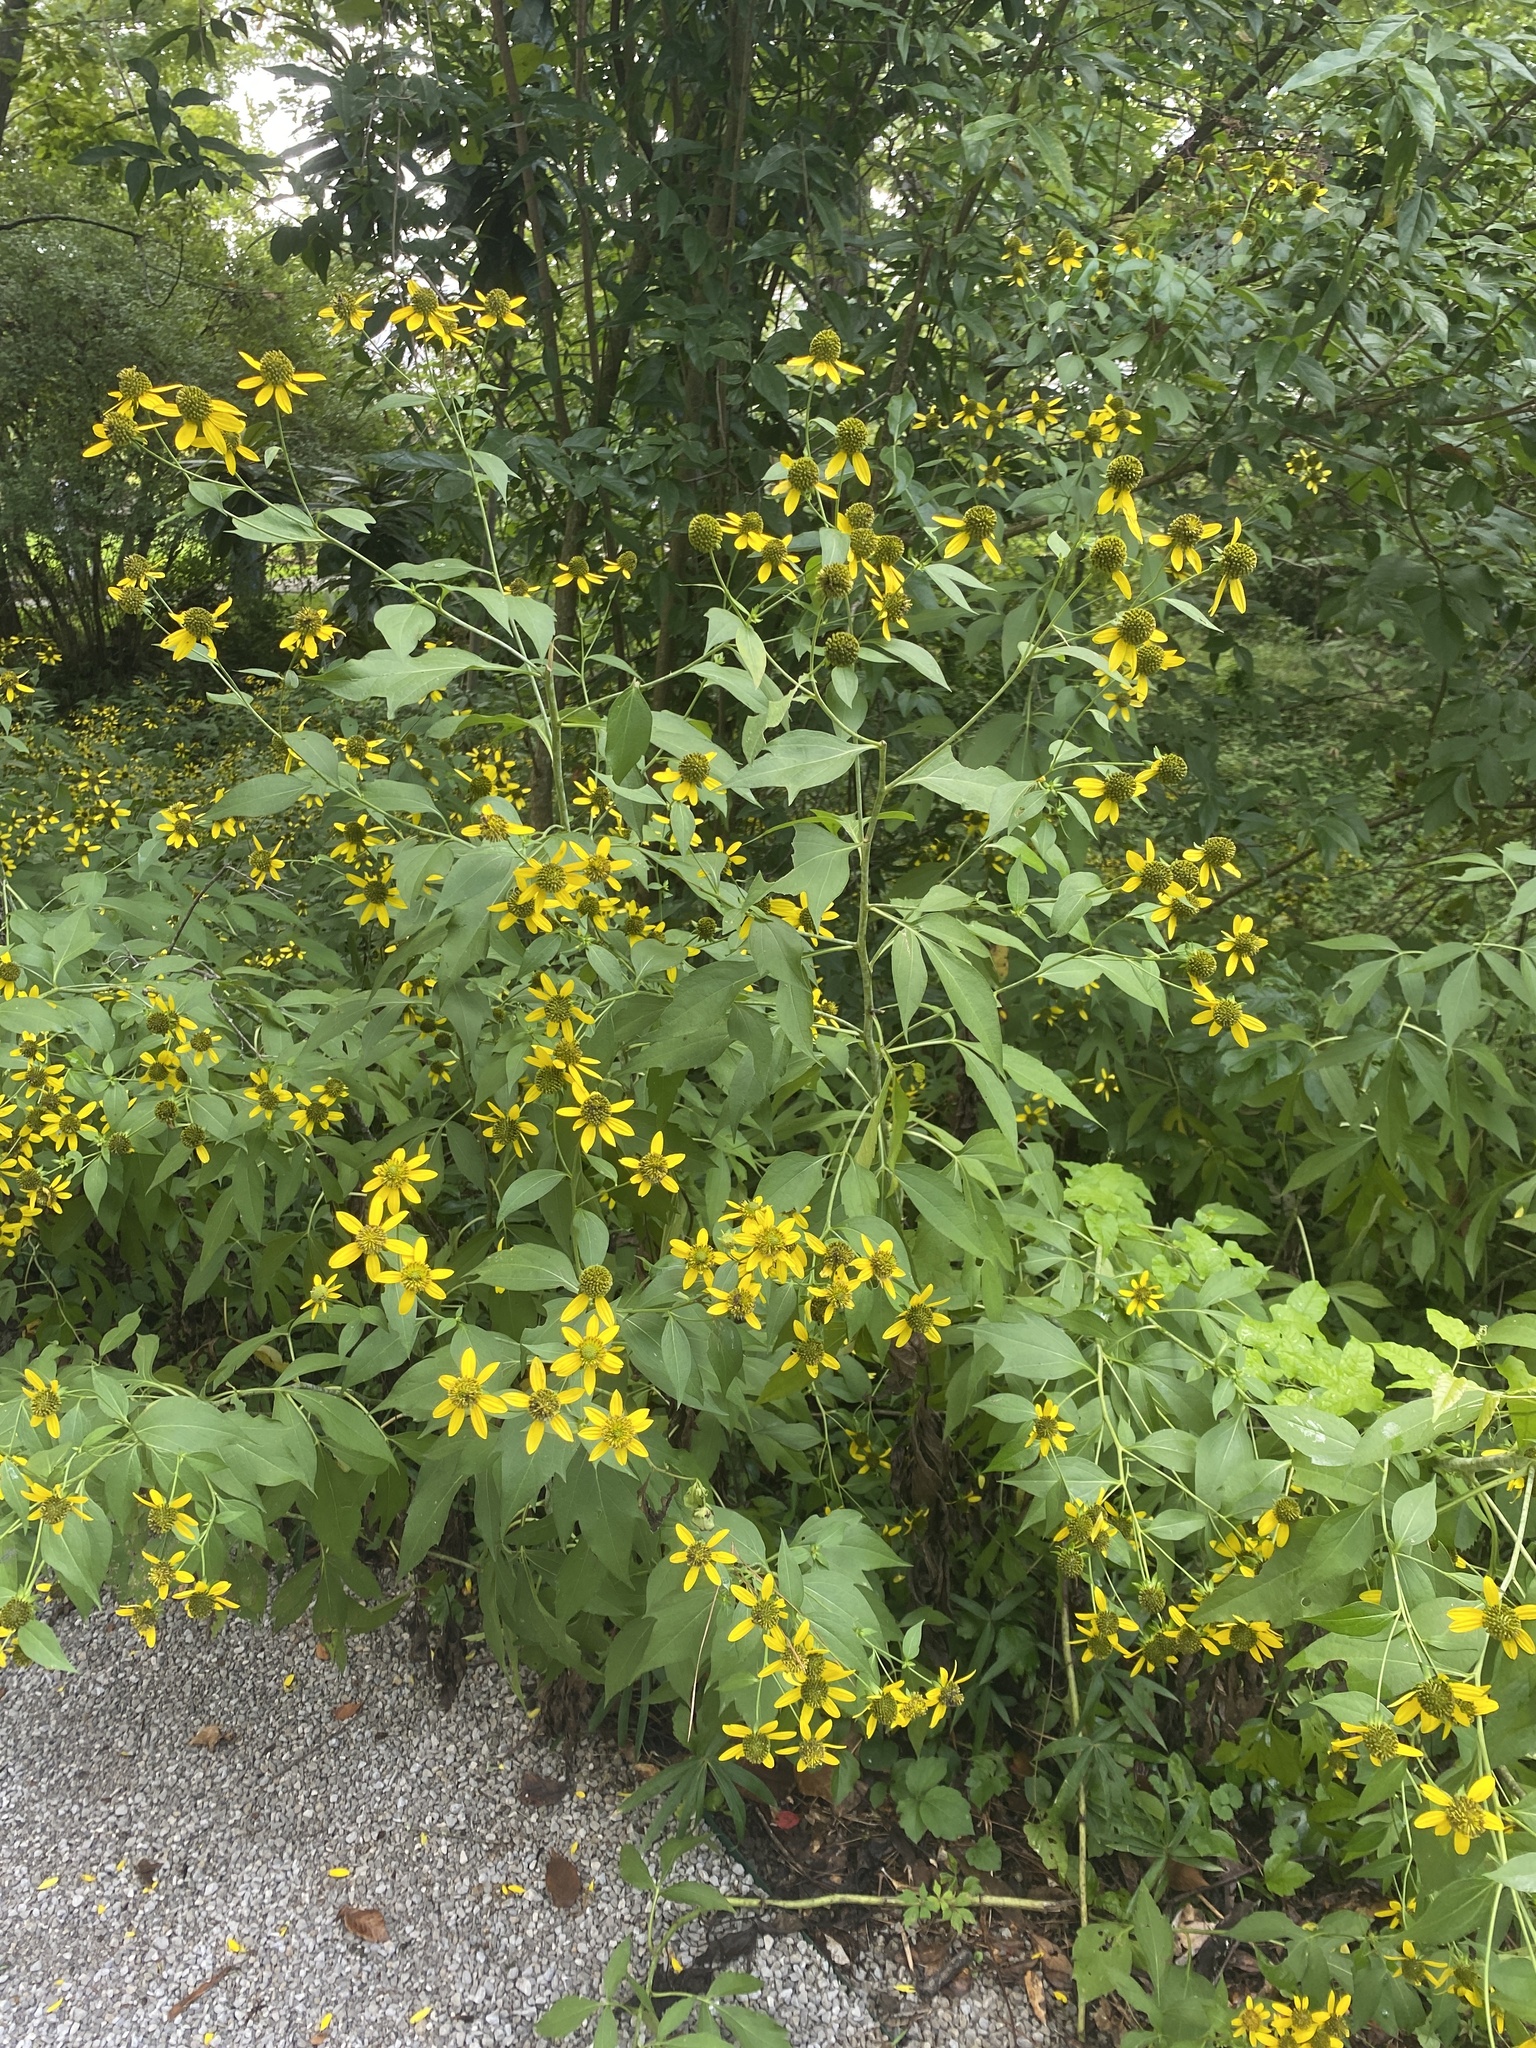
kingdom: Plantae
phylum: Tracheophyta
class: Magnoliopsida
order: Asterales
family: Asteraceae
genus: Rudbeckia
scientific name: Rudbeckia laciniata
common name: Coneflower
